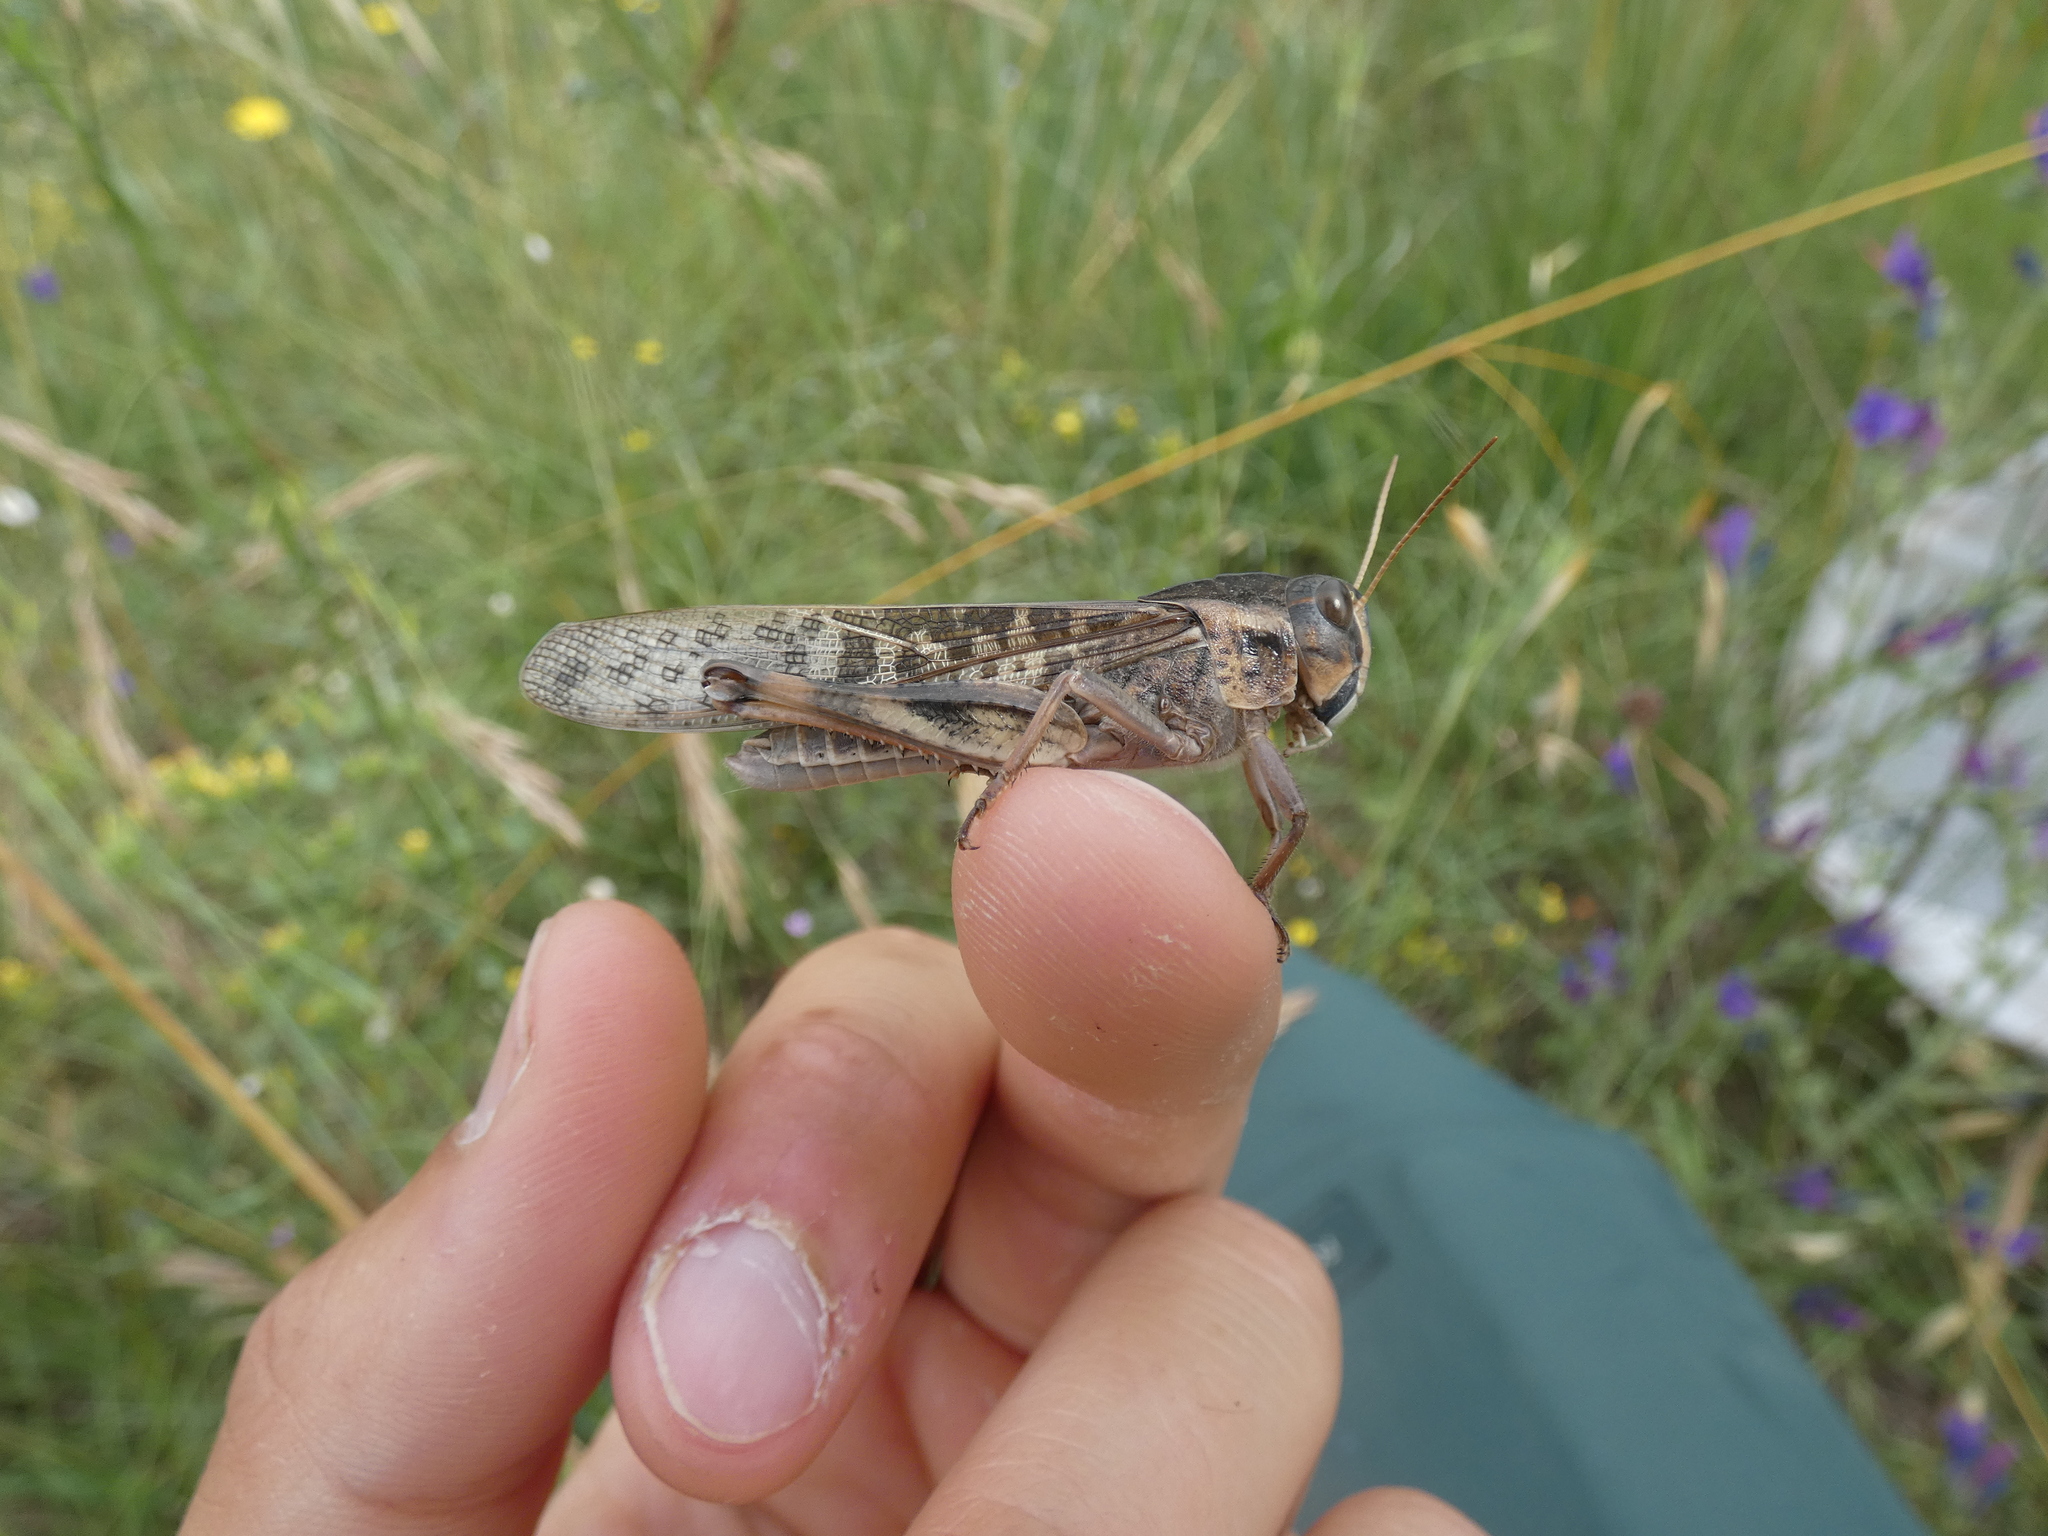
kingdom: Animalia
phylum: Arthropoda
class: Insecta
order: Orthoptera
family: Acrididae
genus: Locusta
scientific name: Locusta migratoria
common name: Migratory locust
